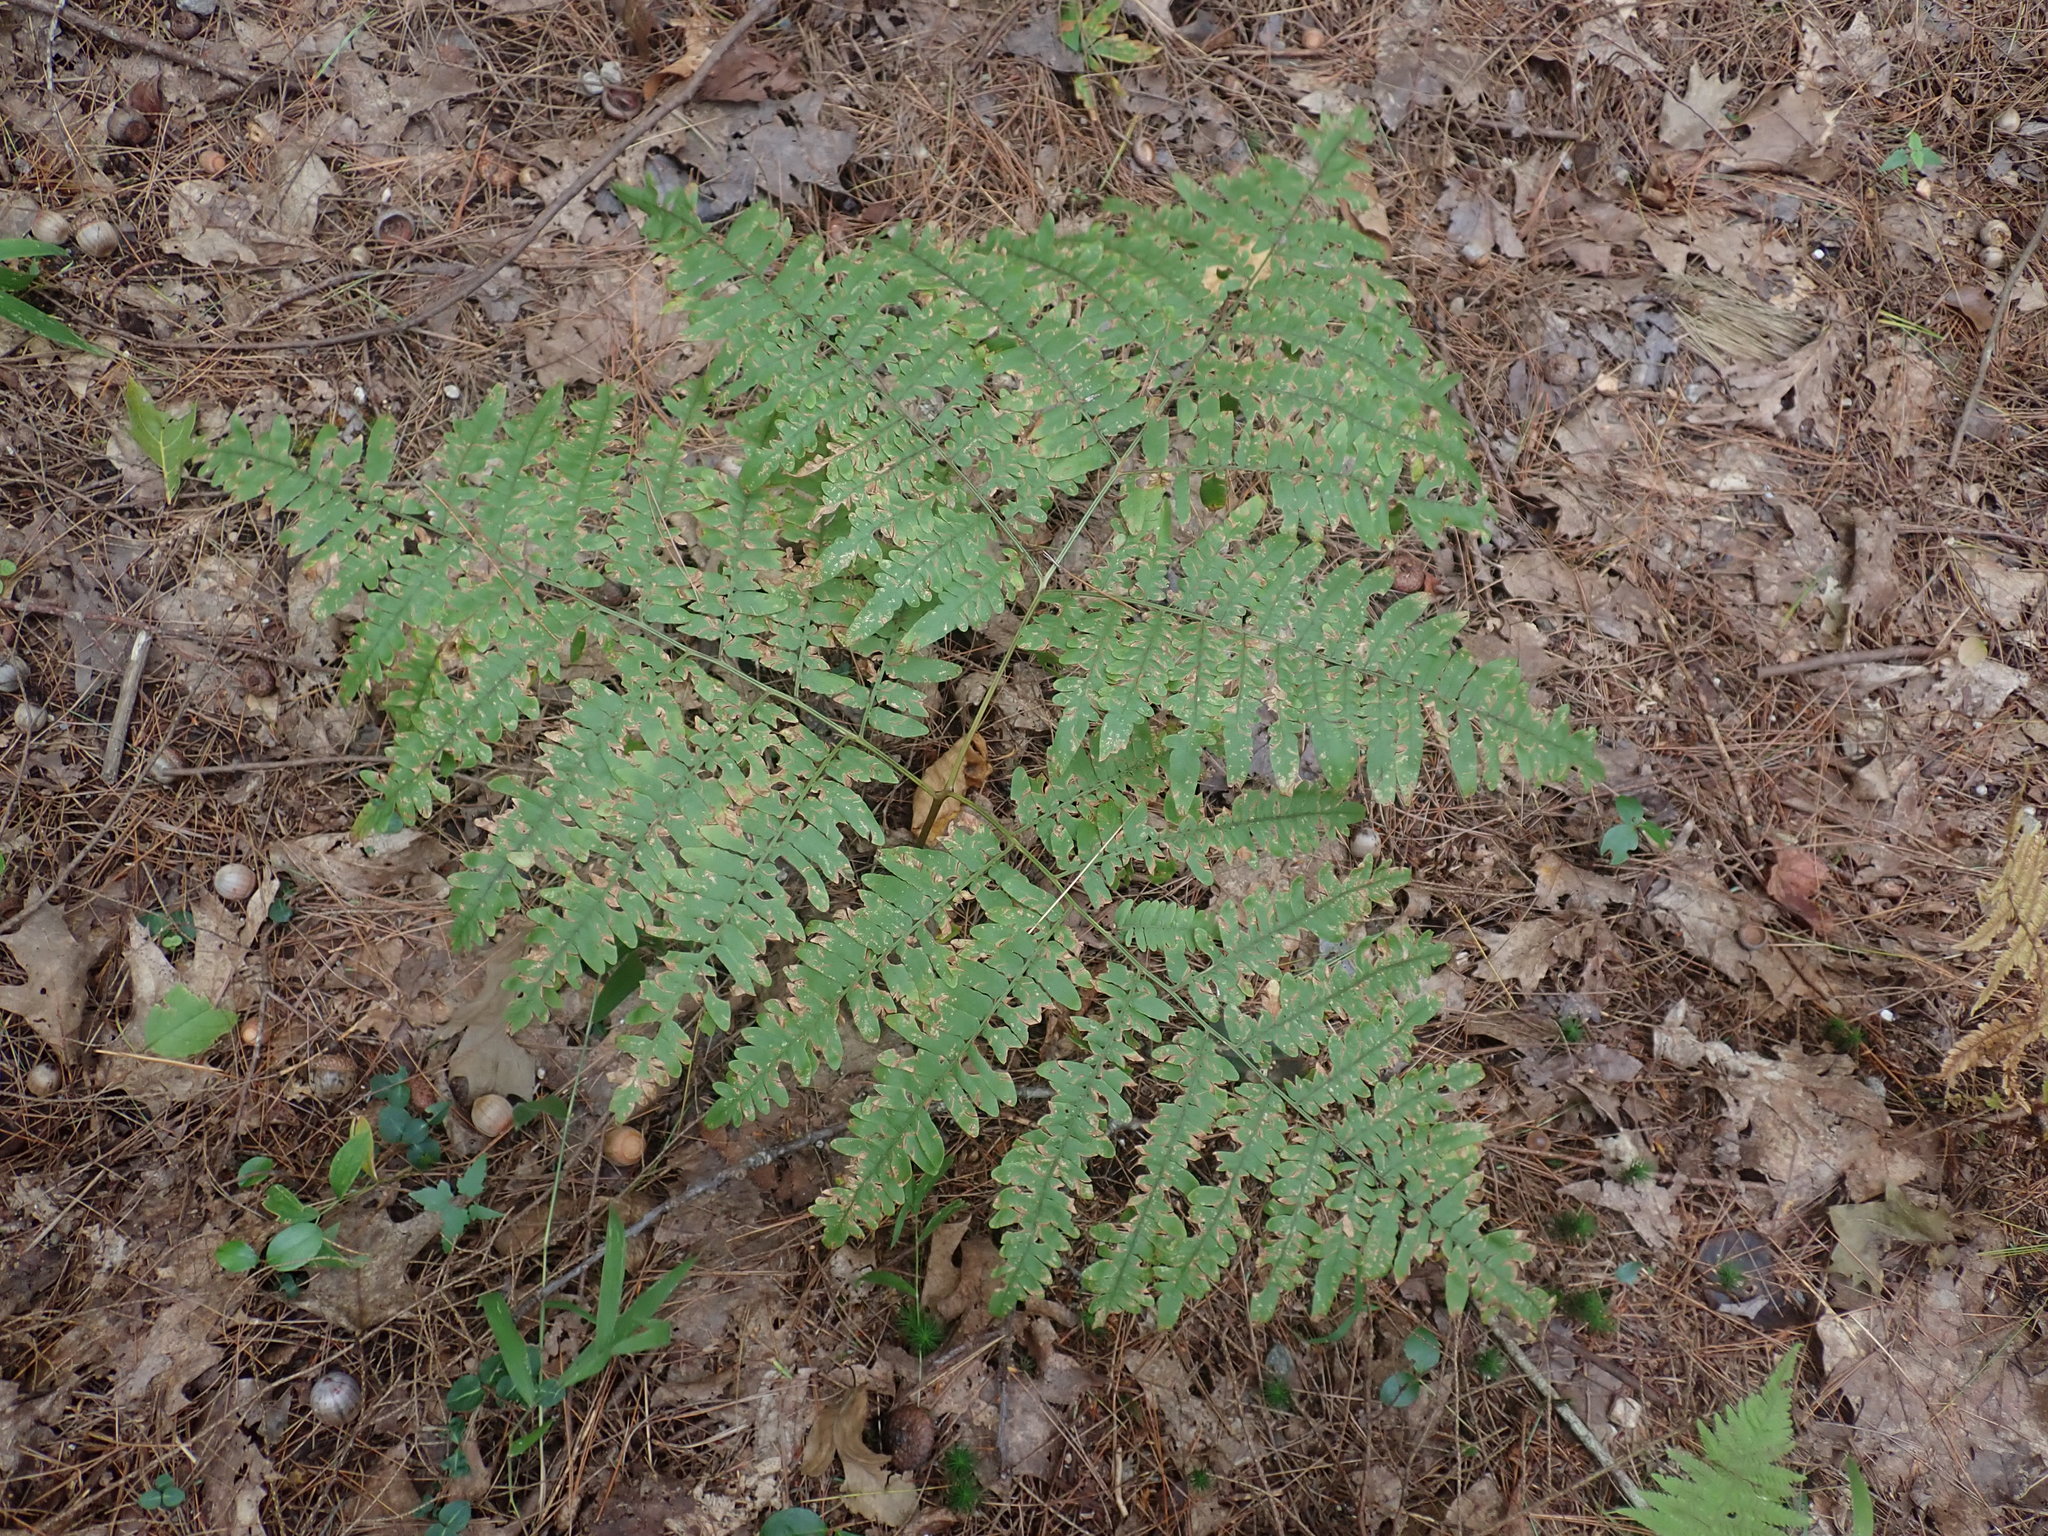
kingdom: Plantae
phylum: Tracheophyta
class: Polypodiopsida
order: Polypodiales
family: Dennstaedtiaceae
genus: Pteridium
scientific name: Pteridium aquilinum
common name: Bracken
